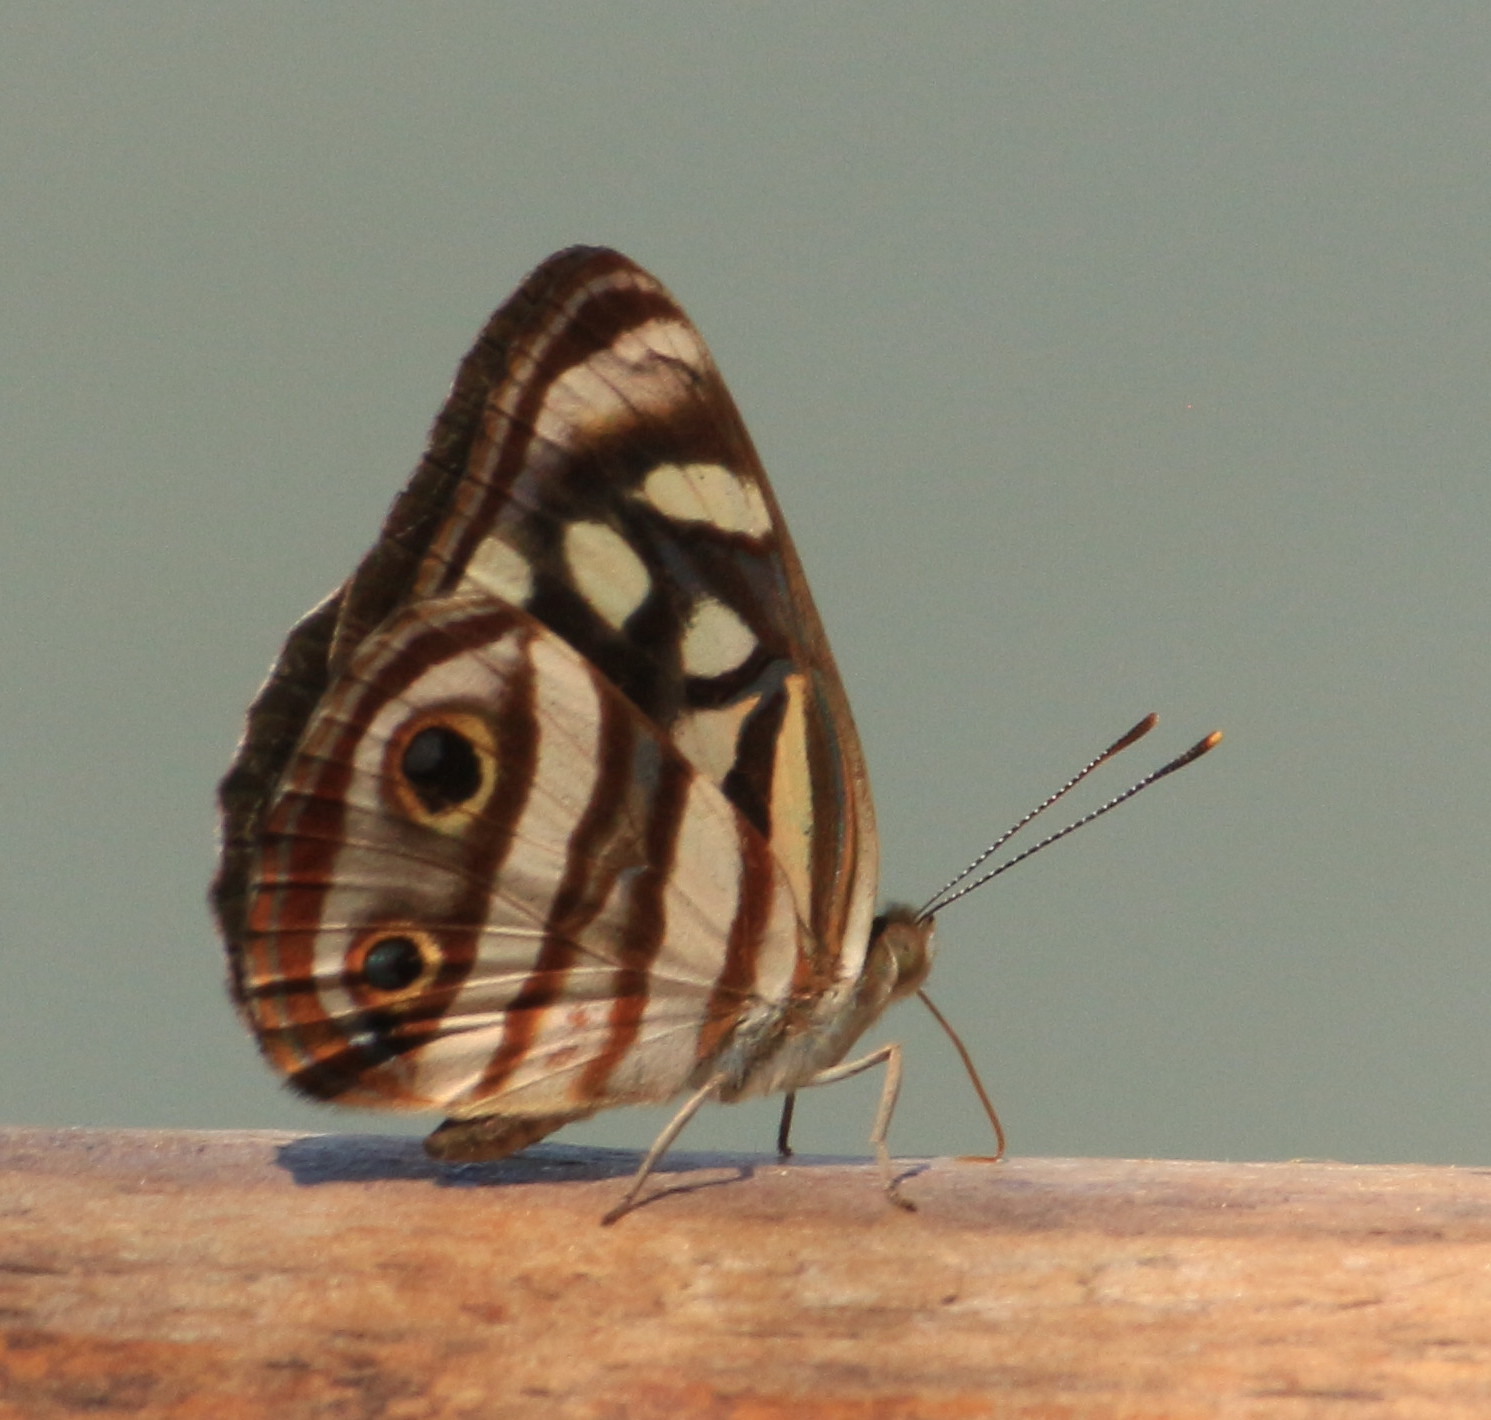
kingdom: Animalia
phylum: Arthropoda
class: Insecta
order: Lepidoptera
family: Nymphalidae
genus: Dynamine
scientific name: Dynamine mylitta
